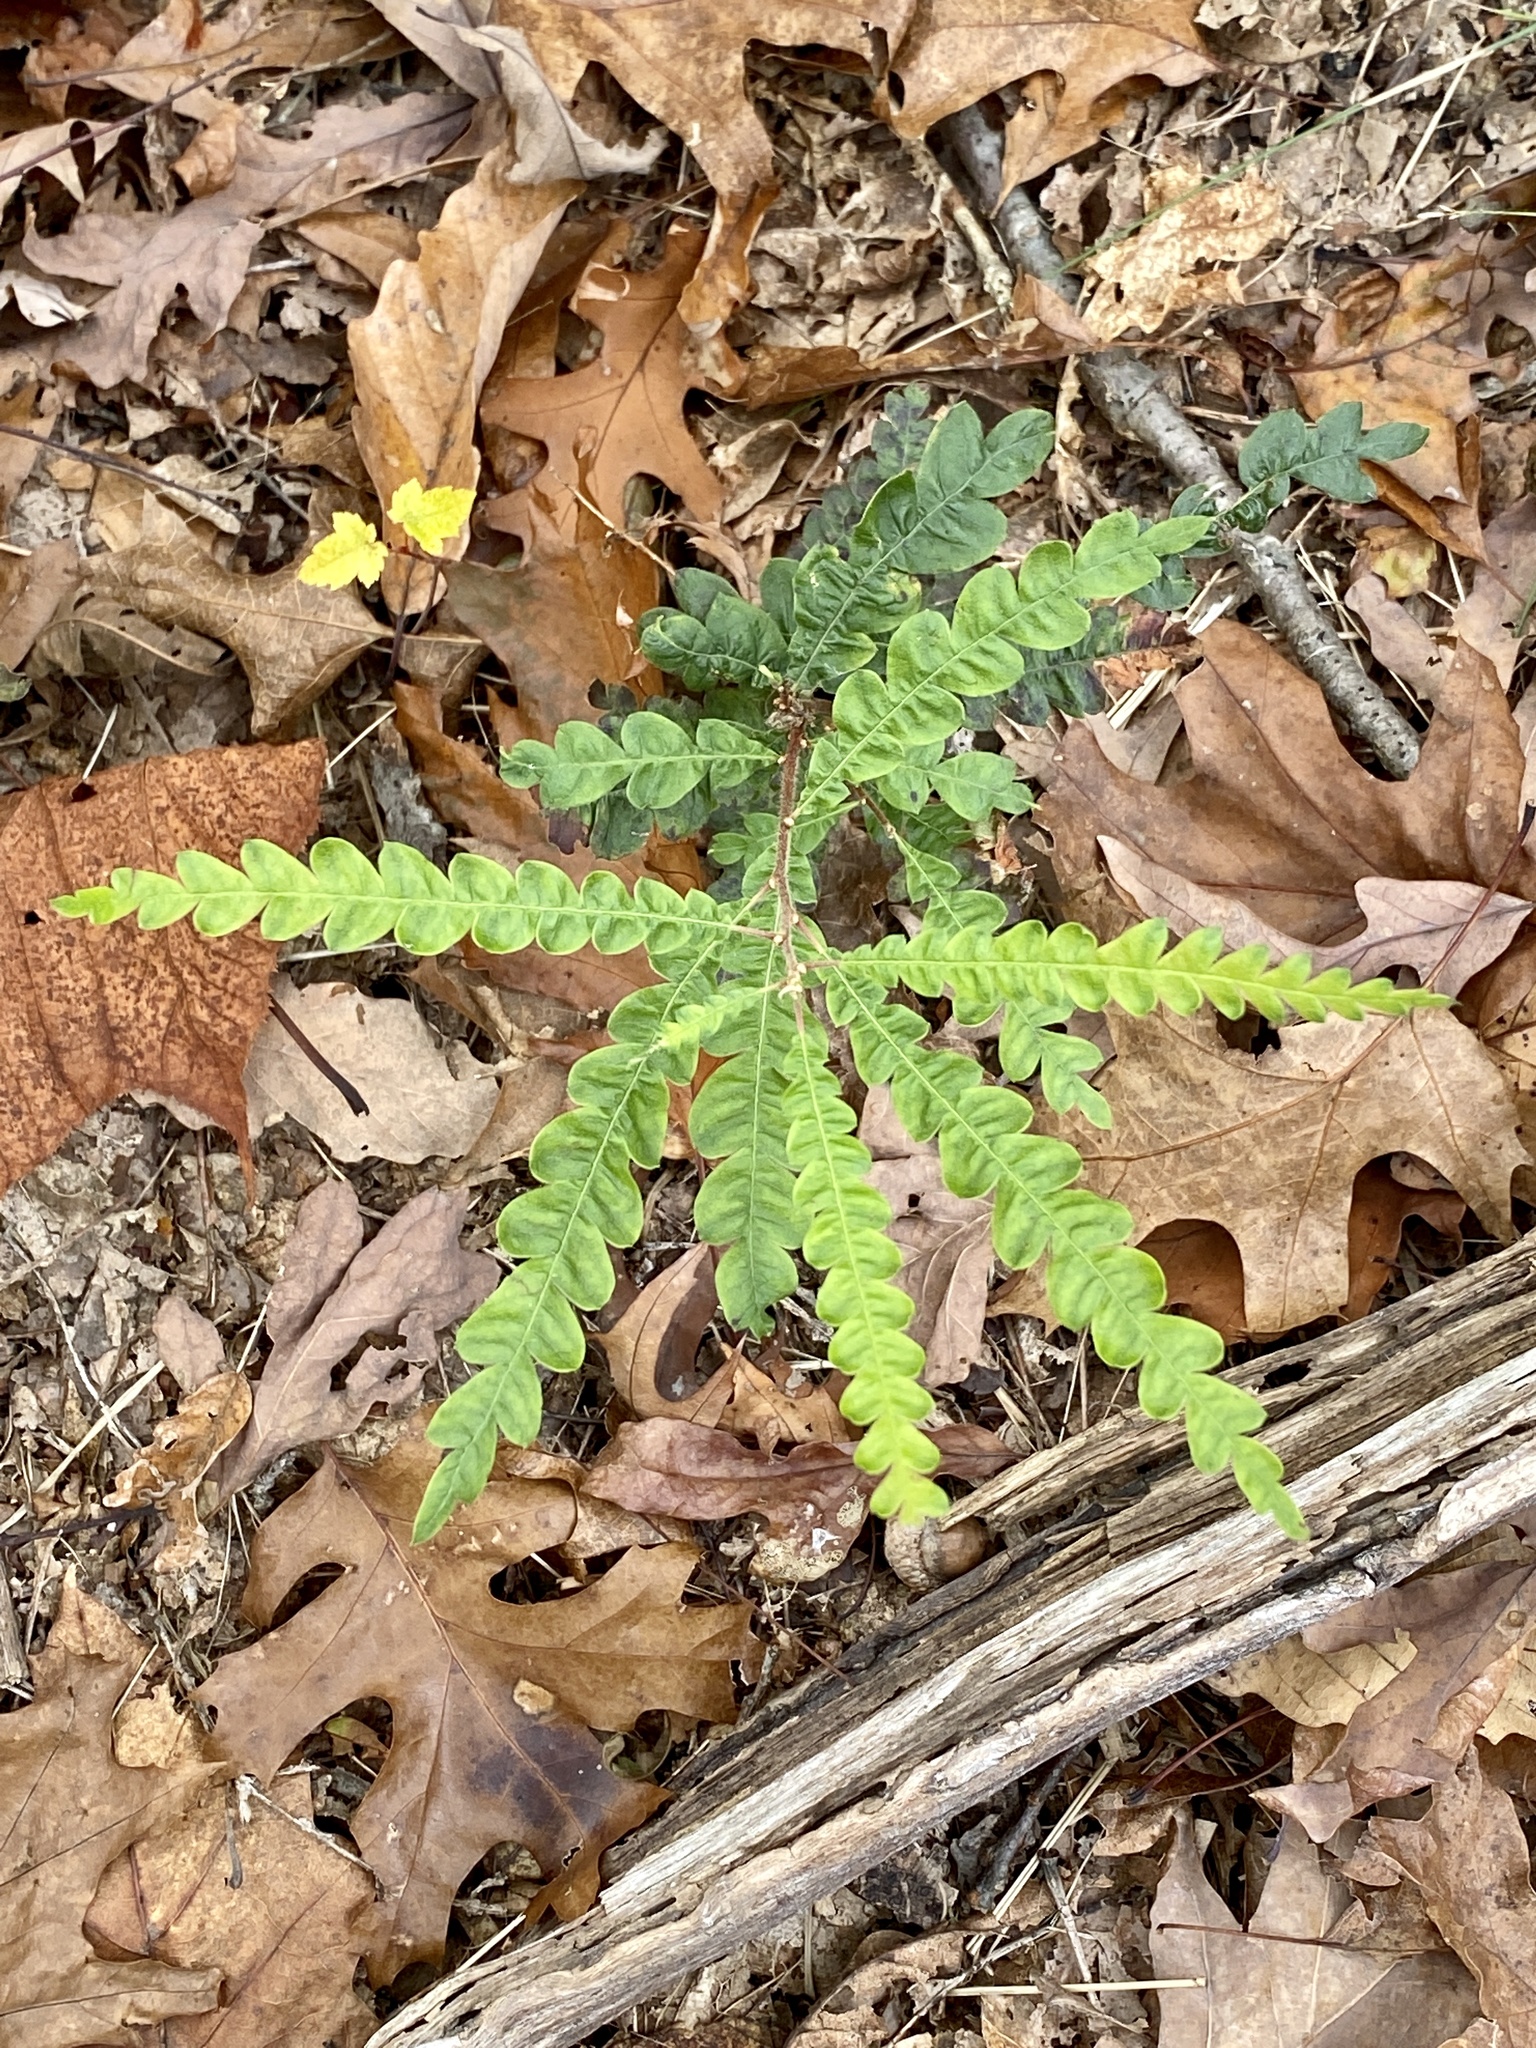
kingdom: Plantae
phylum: Tracheophyta
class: Magnoliopsida
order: Fagales
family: Myricaceae
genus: Comptonia
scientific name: Comptonia peregrina
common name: Sweet-fern
